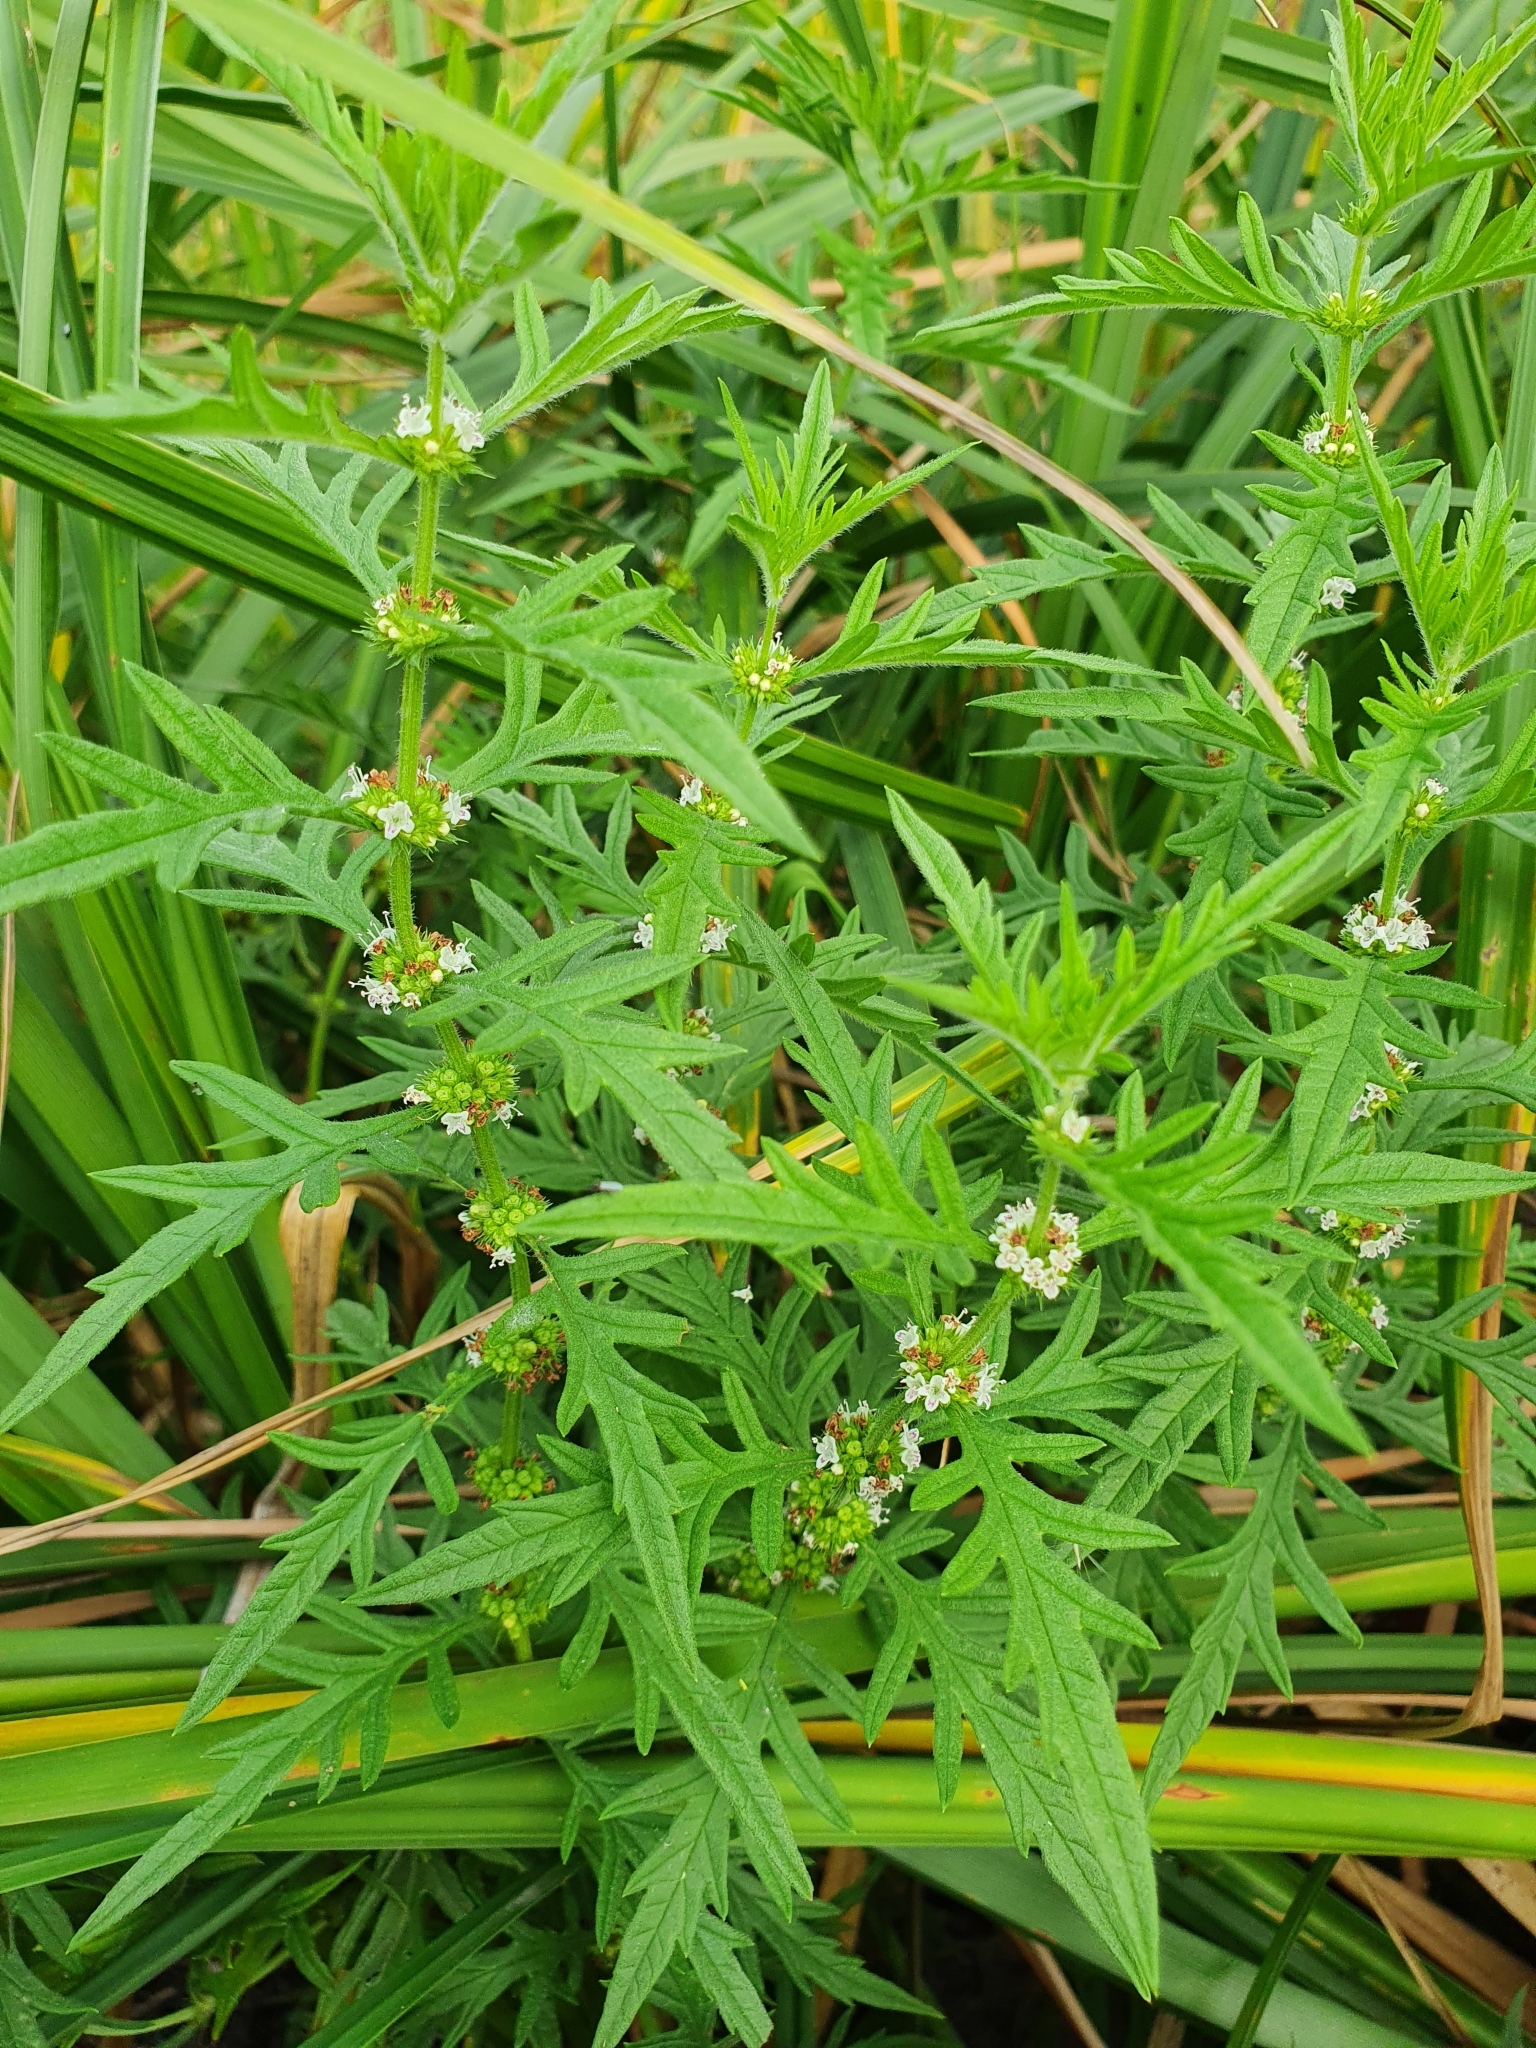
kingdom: Plantae
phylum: Tracheophyta
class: Magnoliopsida
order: Lamiales
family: Lamiaceae
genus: Lycopus
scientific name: Lycopus exaltatus
